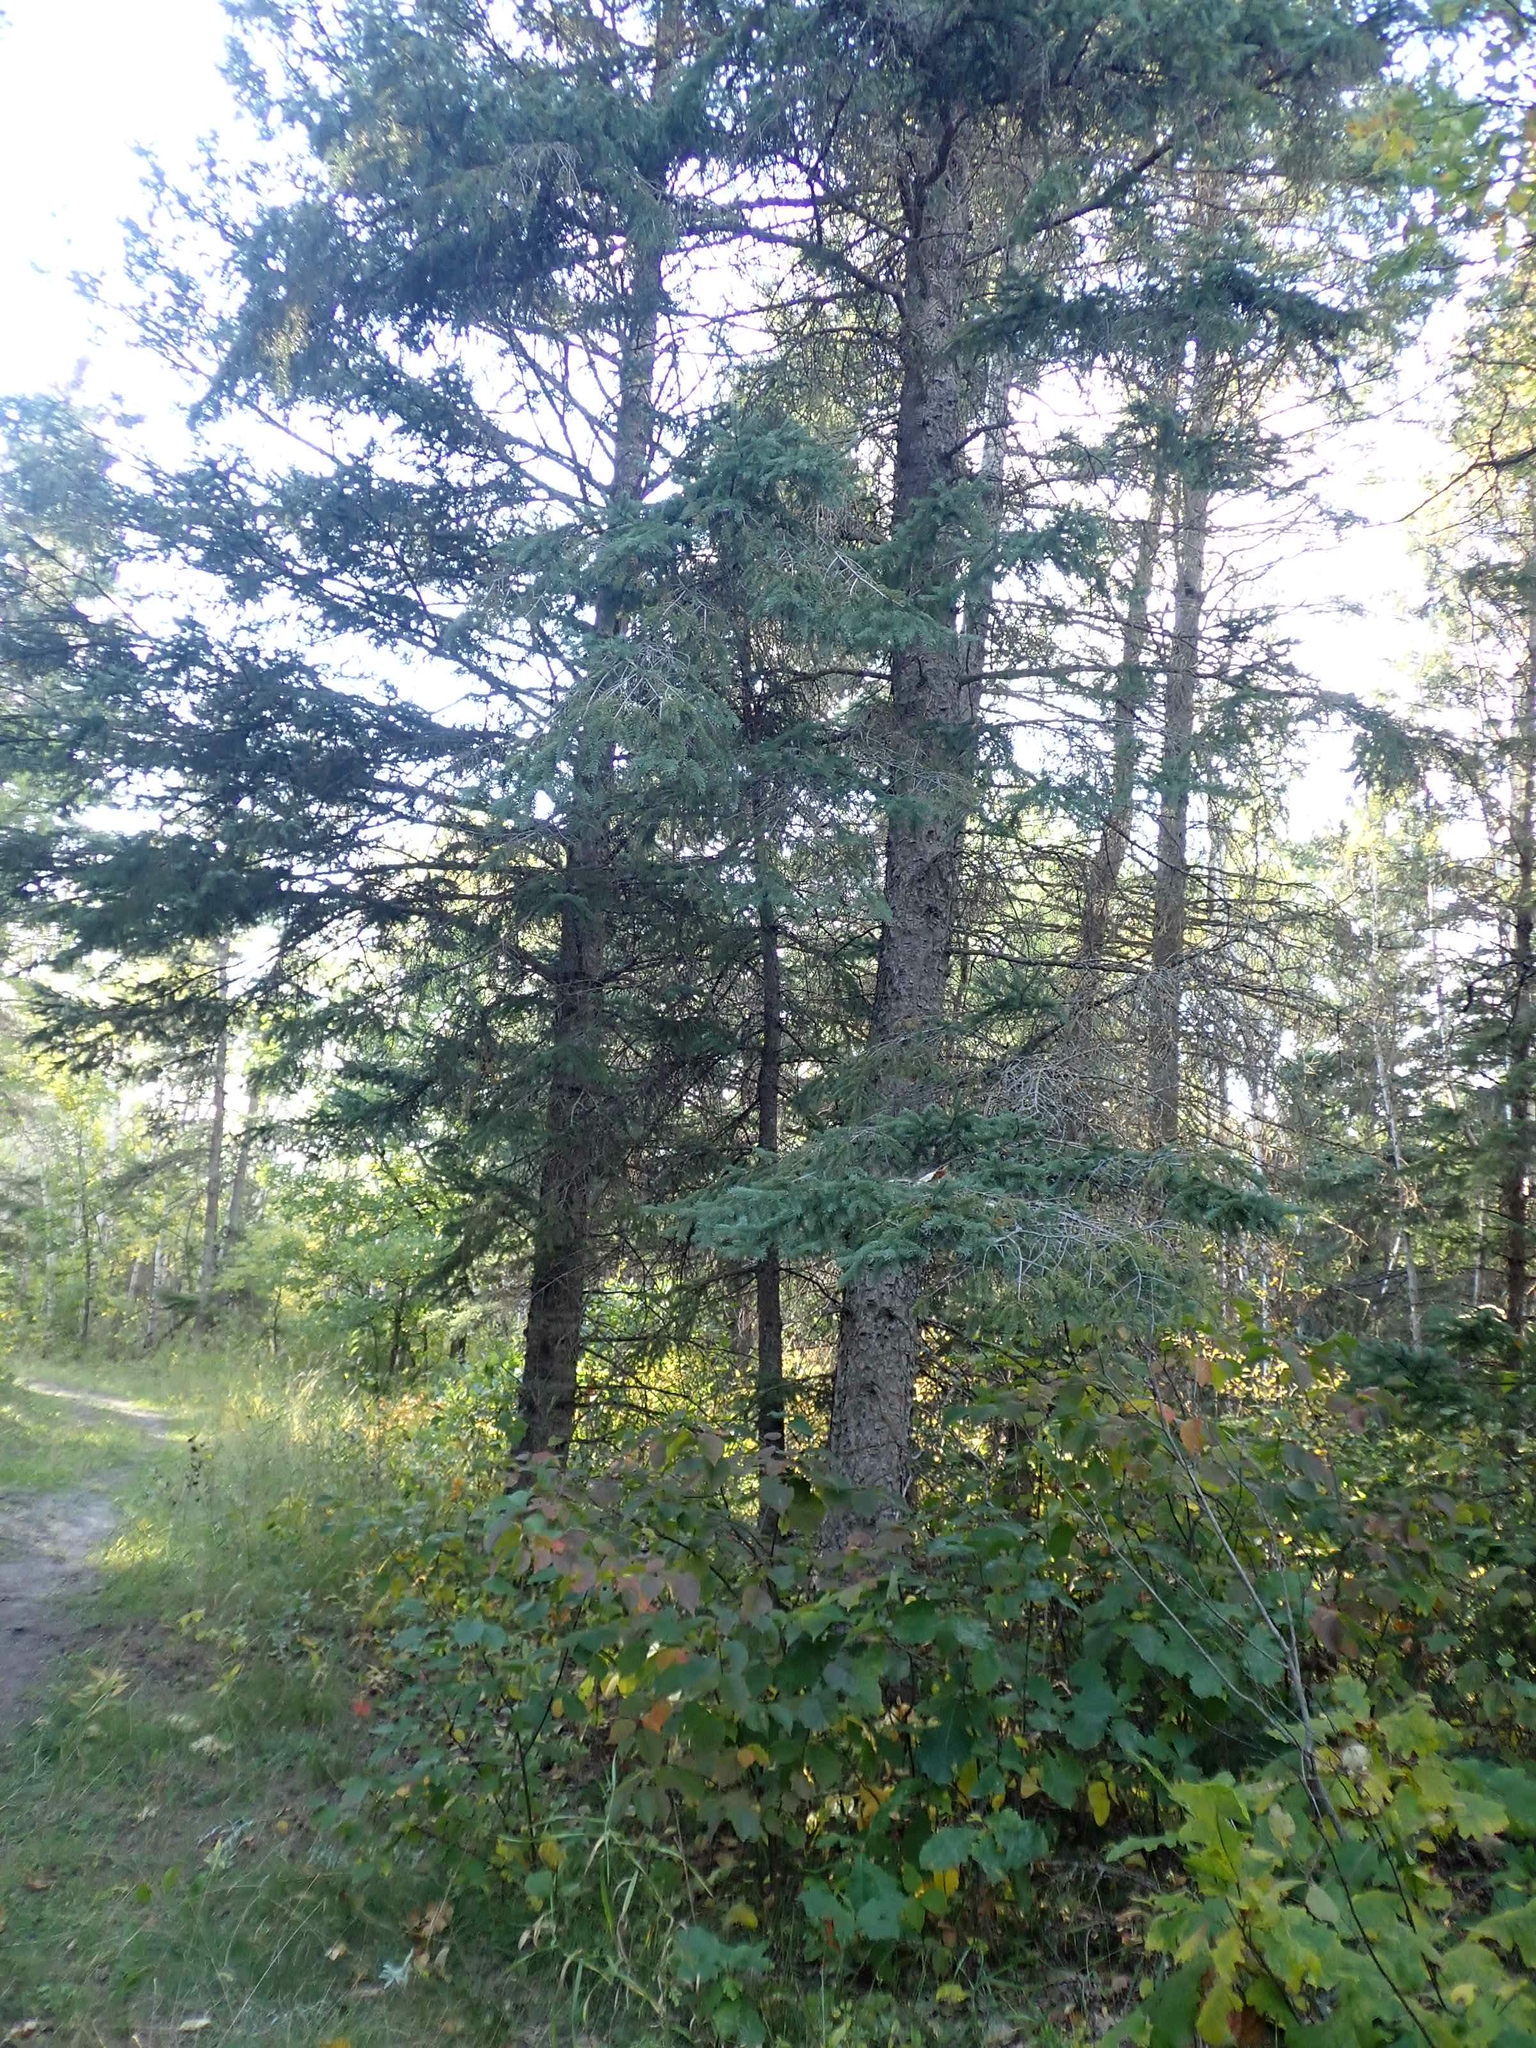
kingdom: Plantae
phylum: Tracheophyta
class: Pinopsida
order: Pinales
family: Pinaceae
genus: Picea
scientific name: Picea glauca
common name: White spruce
